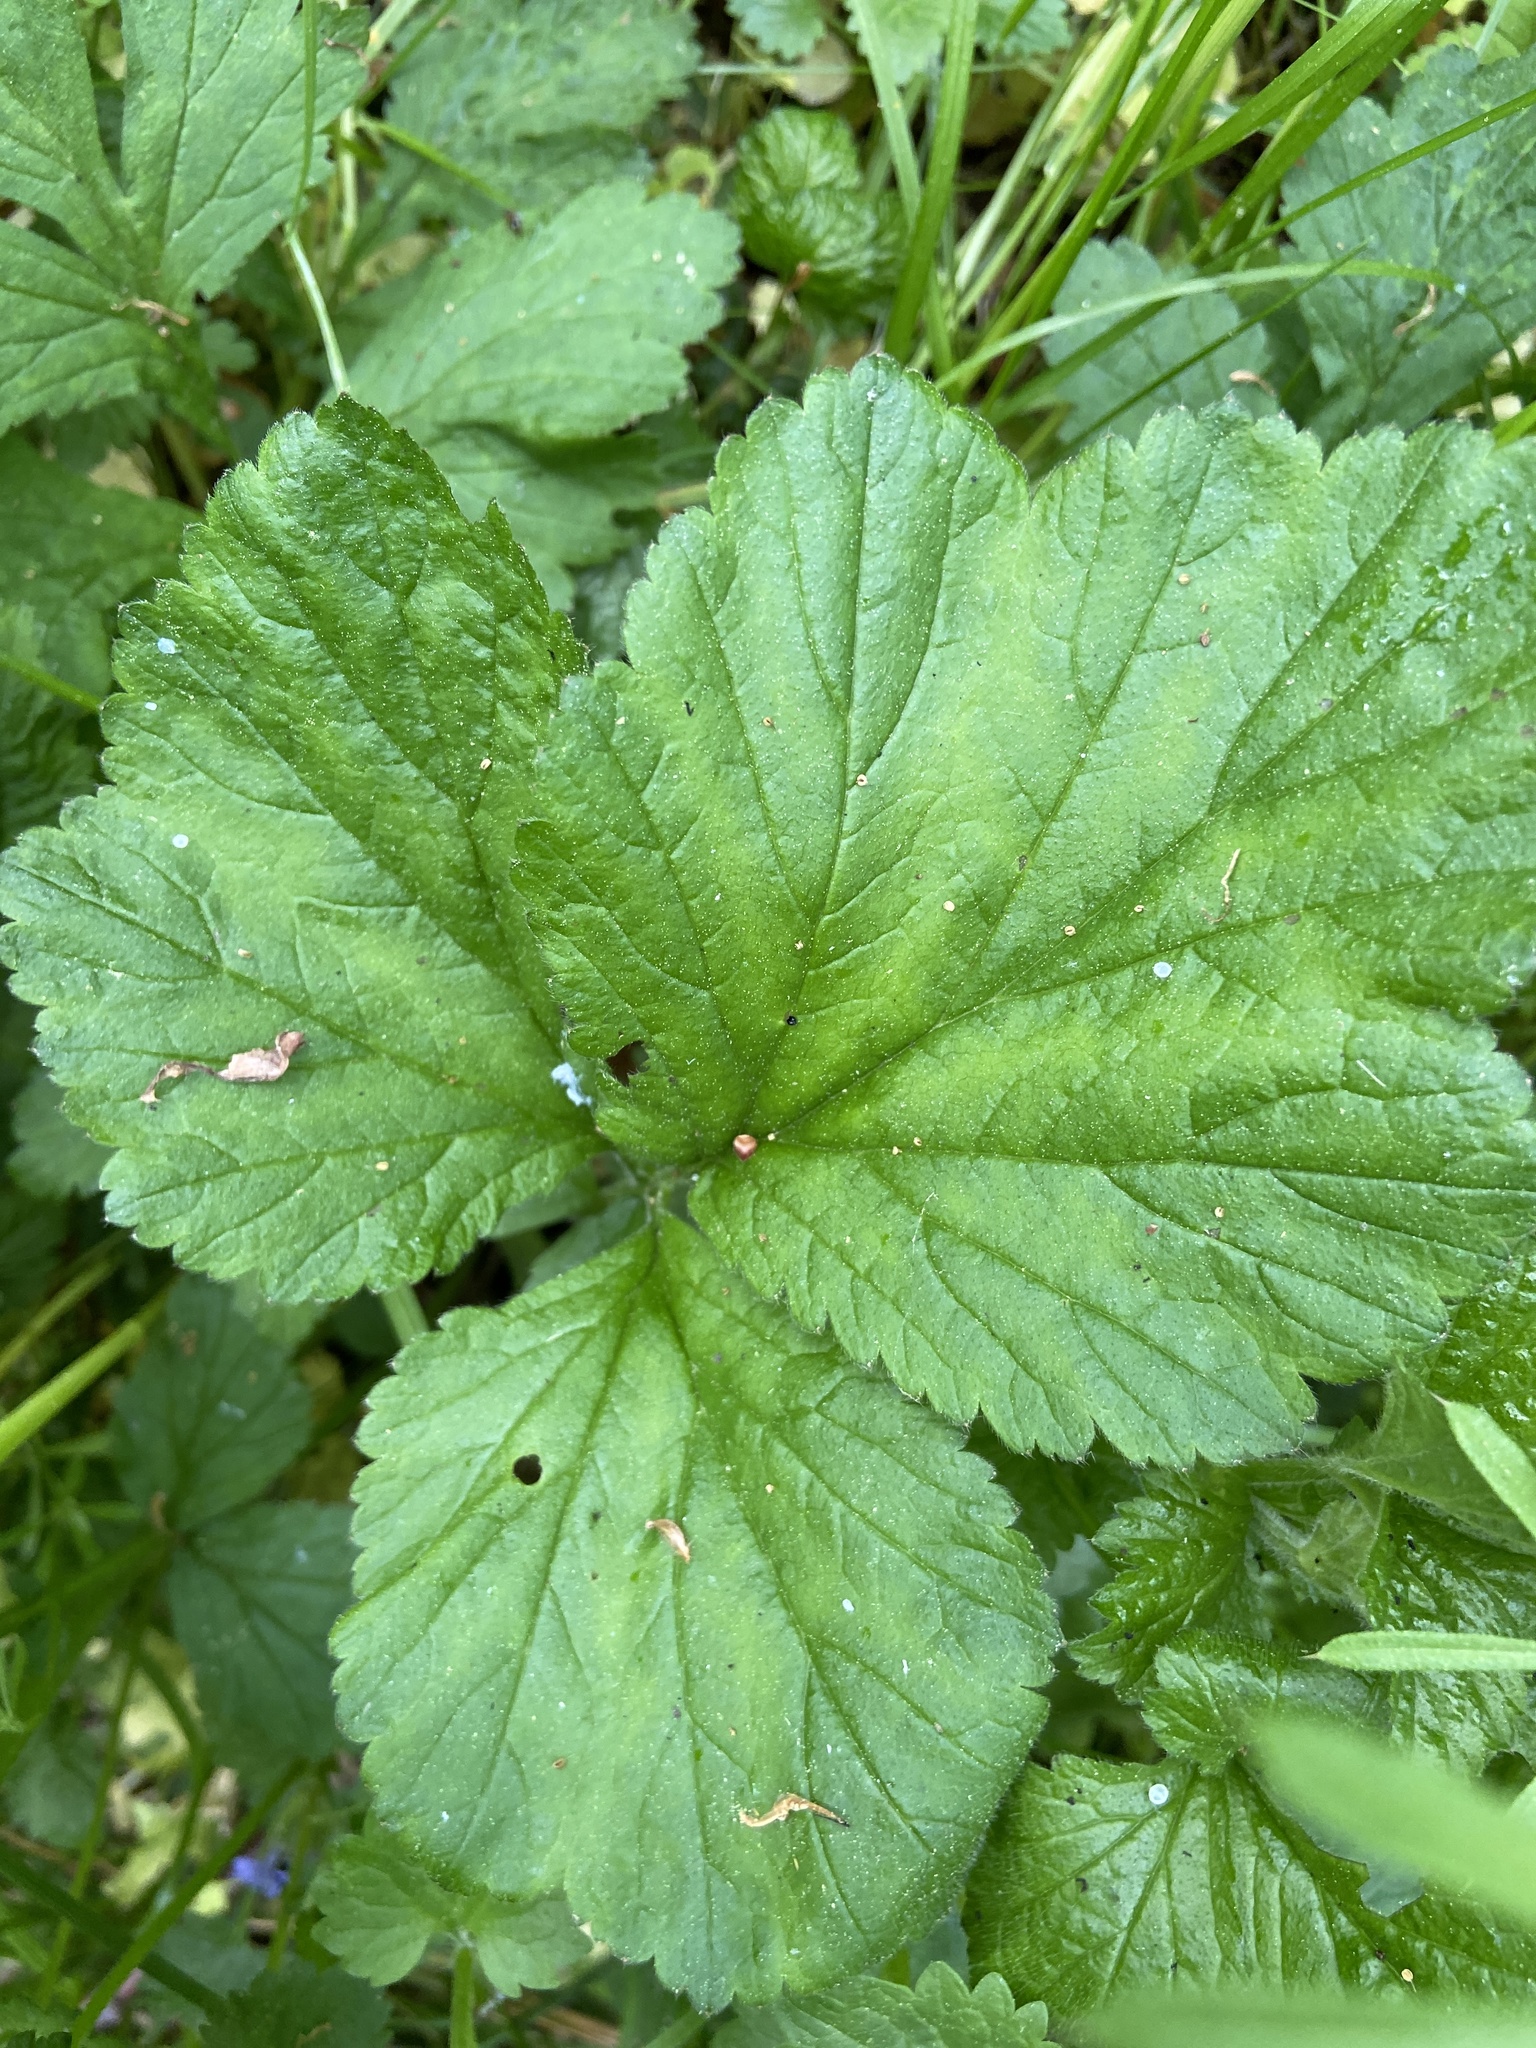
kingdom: Plantae
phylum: Tracheophyta
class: Magnoliopsida
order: Rosales
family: Rosaceae
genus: Geum
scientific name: Geum urbanum
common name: Wood avens
